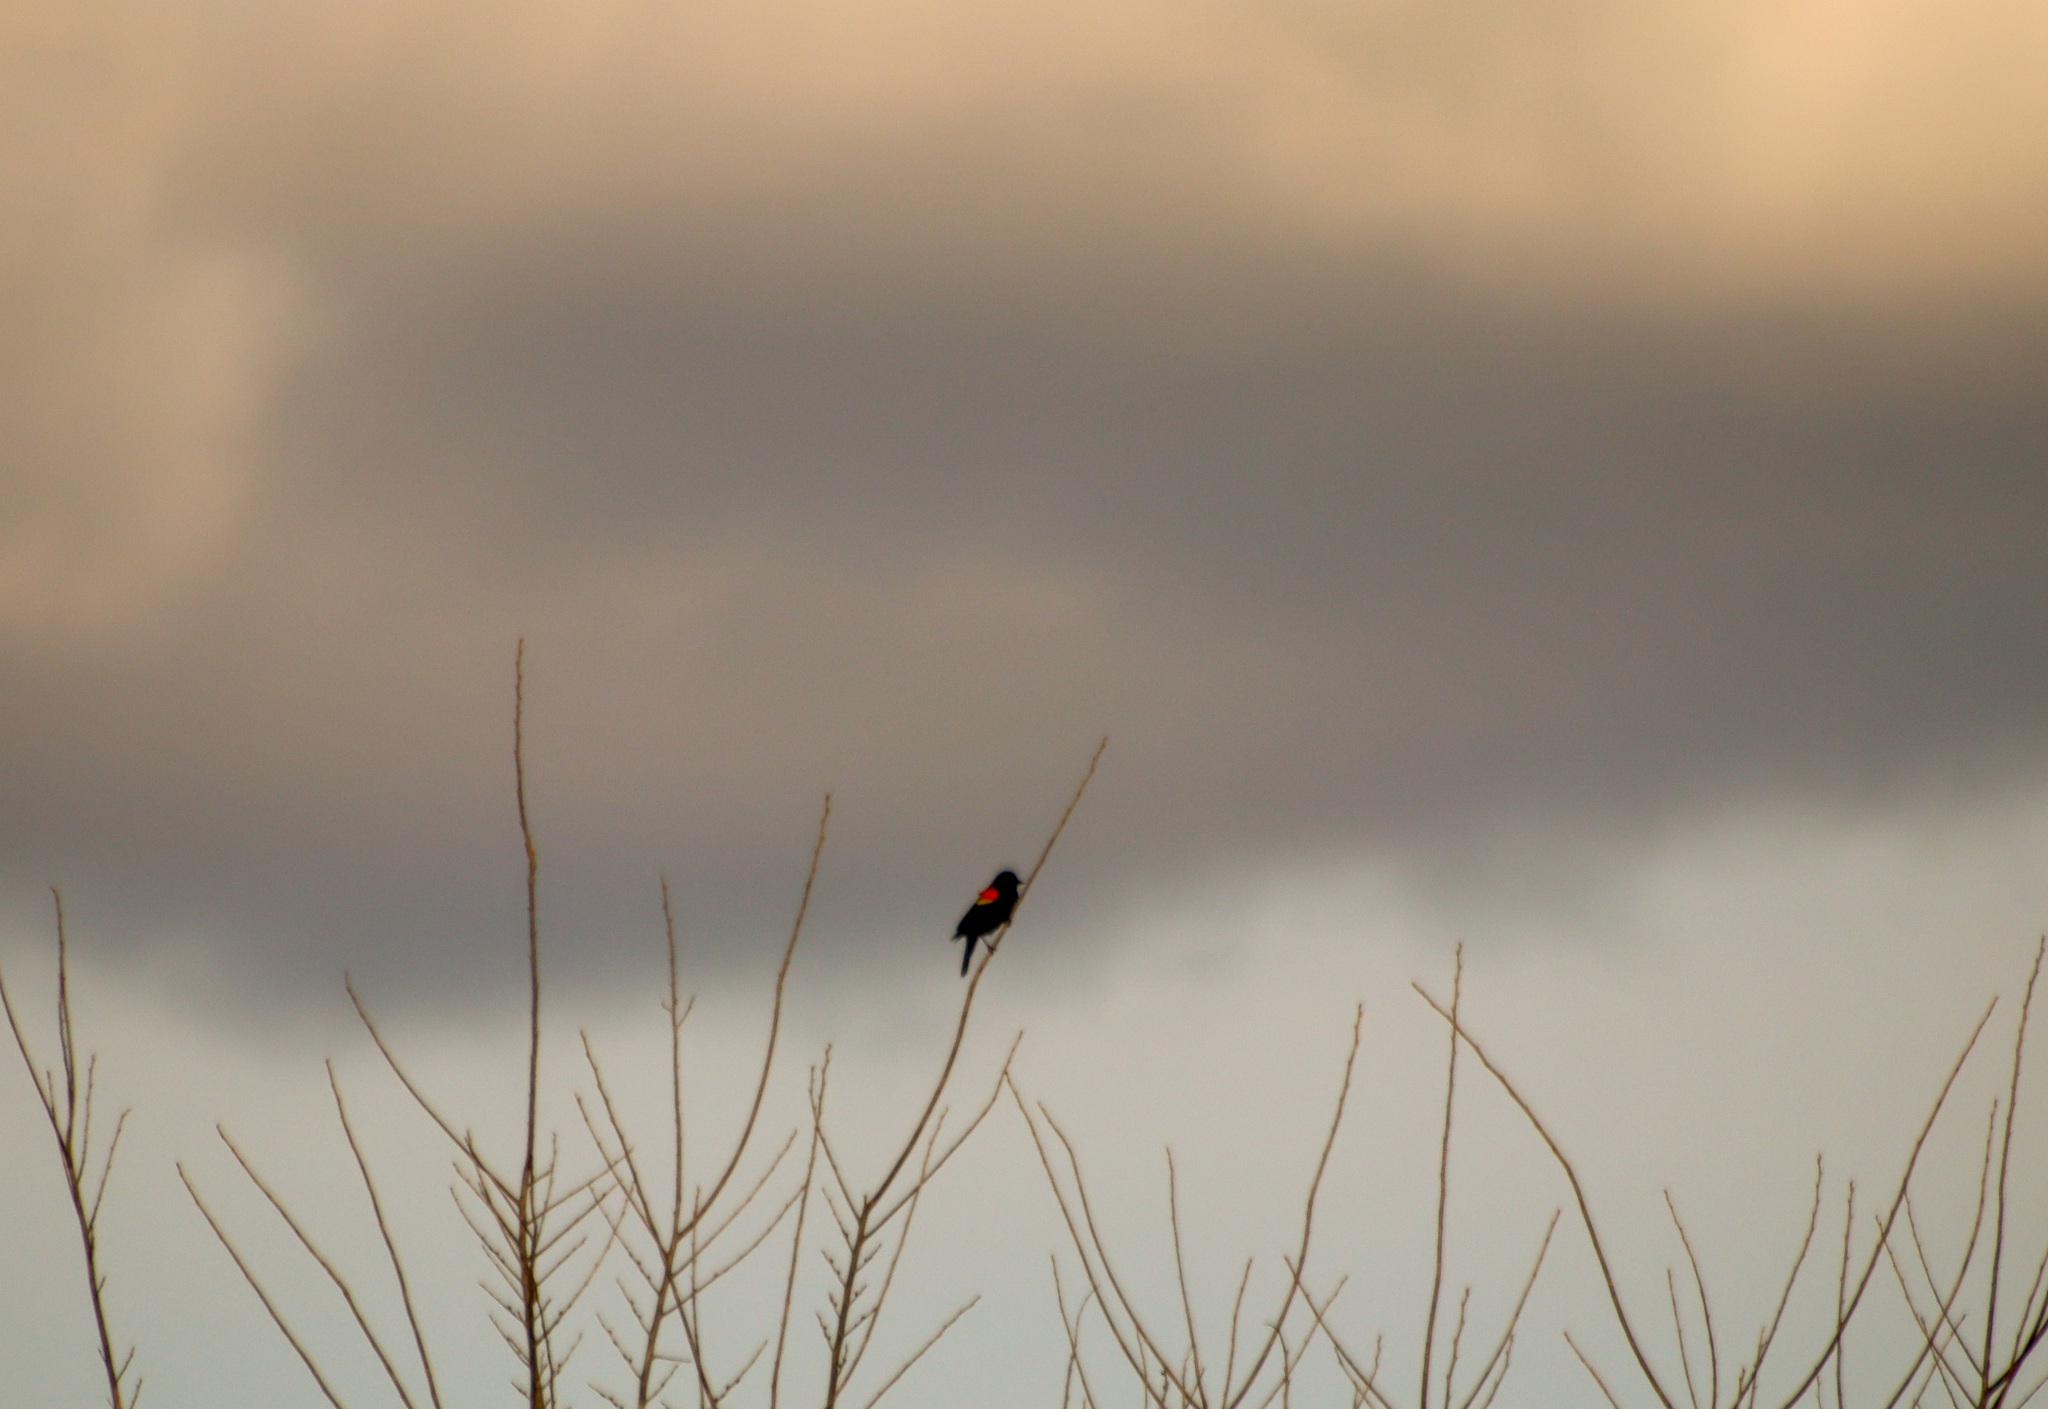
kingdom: Animalia
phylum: Chordata
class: Aves
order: Passeriformes
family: Icteridae
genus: Agelaius
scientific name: Agelaius phoeniceus
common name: Red-winged blackbird
